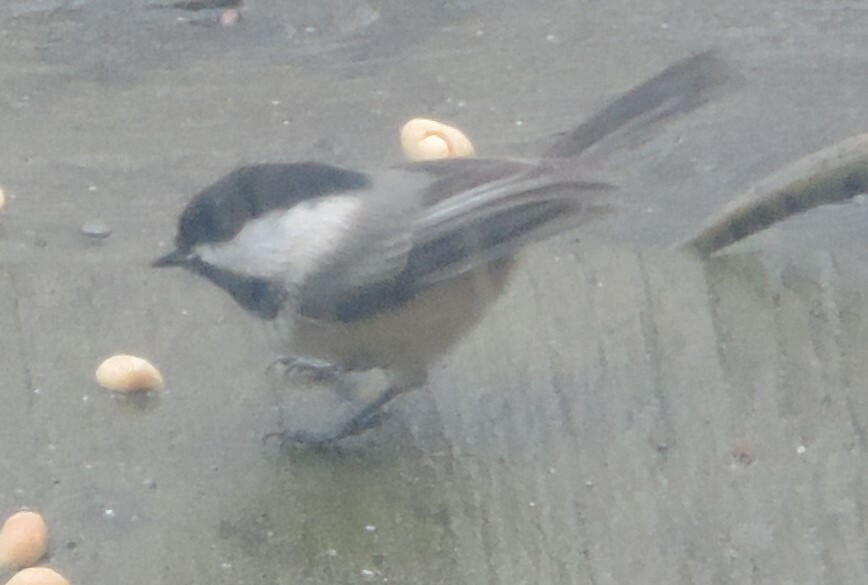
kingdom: Animalia
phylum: Chordata
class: Aves
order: Passeriformes
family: Paridae
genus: Poecile
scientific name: Poecile atricapillus
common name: Black-capped chickadee
